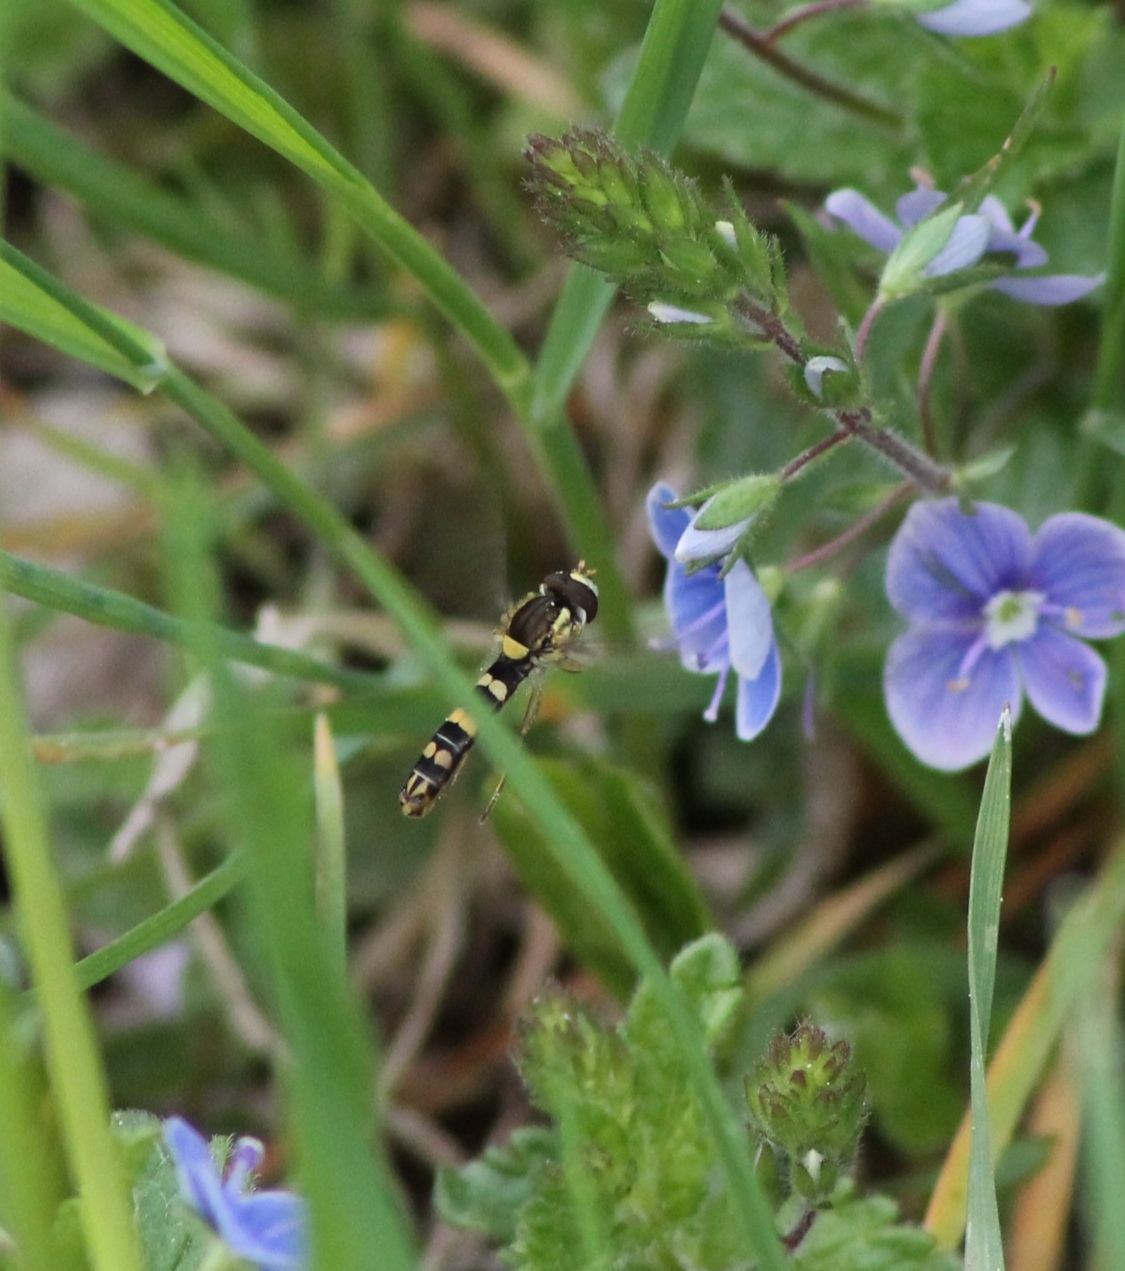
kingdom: Animalia
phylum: Arthropoda
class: Insecta
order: Diptera
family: Syrphidae
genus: Sphaerophoria
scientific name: Sphaerophoria
